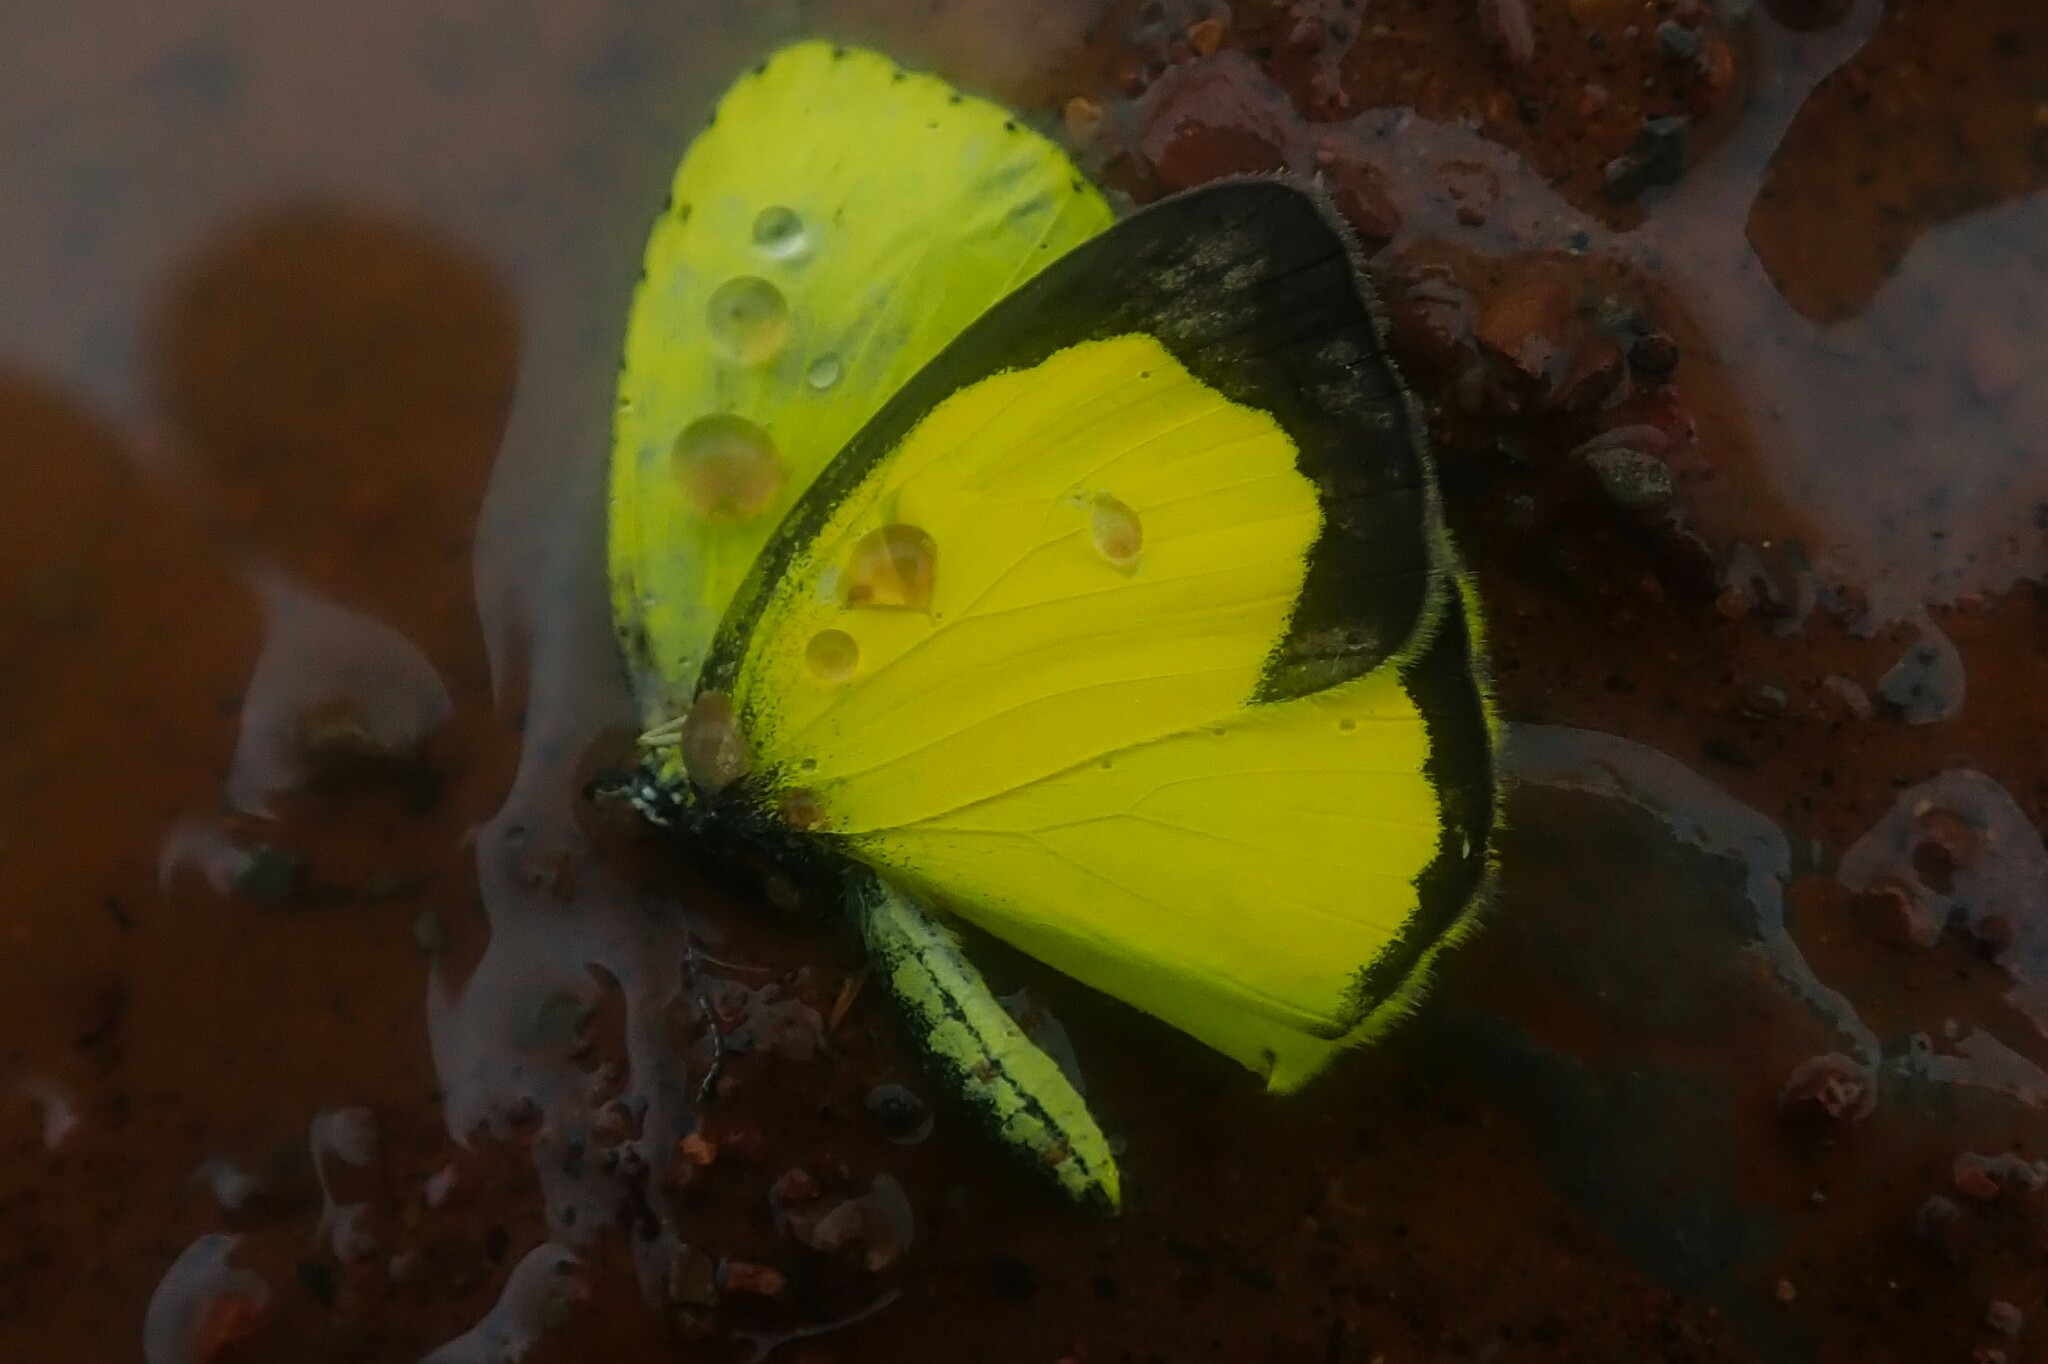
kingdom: Animalia
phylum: Arthropoda
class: Insecta
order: Lepidoptera
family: Pieridae
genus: Eurema
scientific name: Eurema regularis
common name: Regular grass yellow
